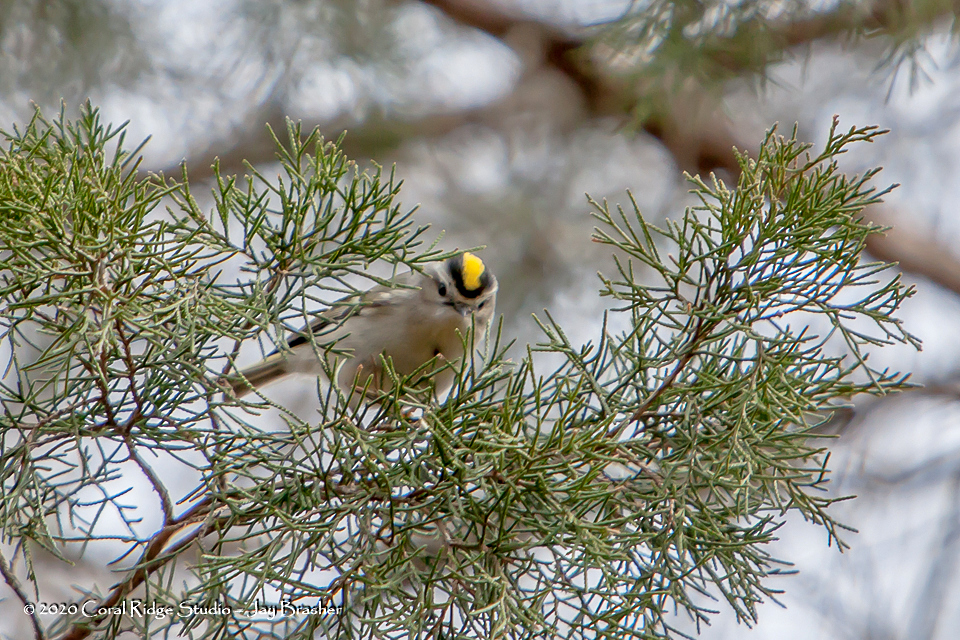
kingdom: Animalia
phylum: Chordata
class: Aves
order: Passeriformes
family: Regulidae
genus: Regulus
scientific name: Regulus satrapa
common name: Golden-crowned kinglet
